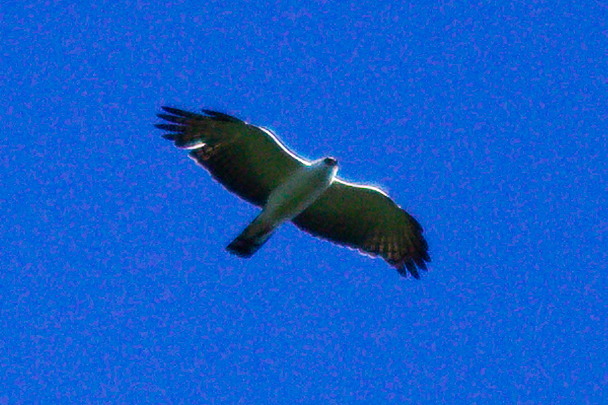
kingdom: Animalia
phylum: Chordata
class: Aves
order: Accipitriformes
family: Accipitridae
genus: Spizaetus
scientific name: Spizaetus melanoleucus
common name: Black-and-white hawk-eagle
